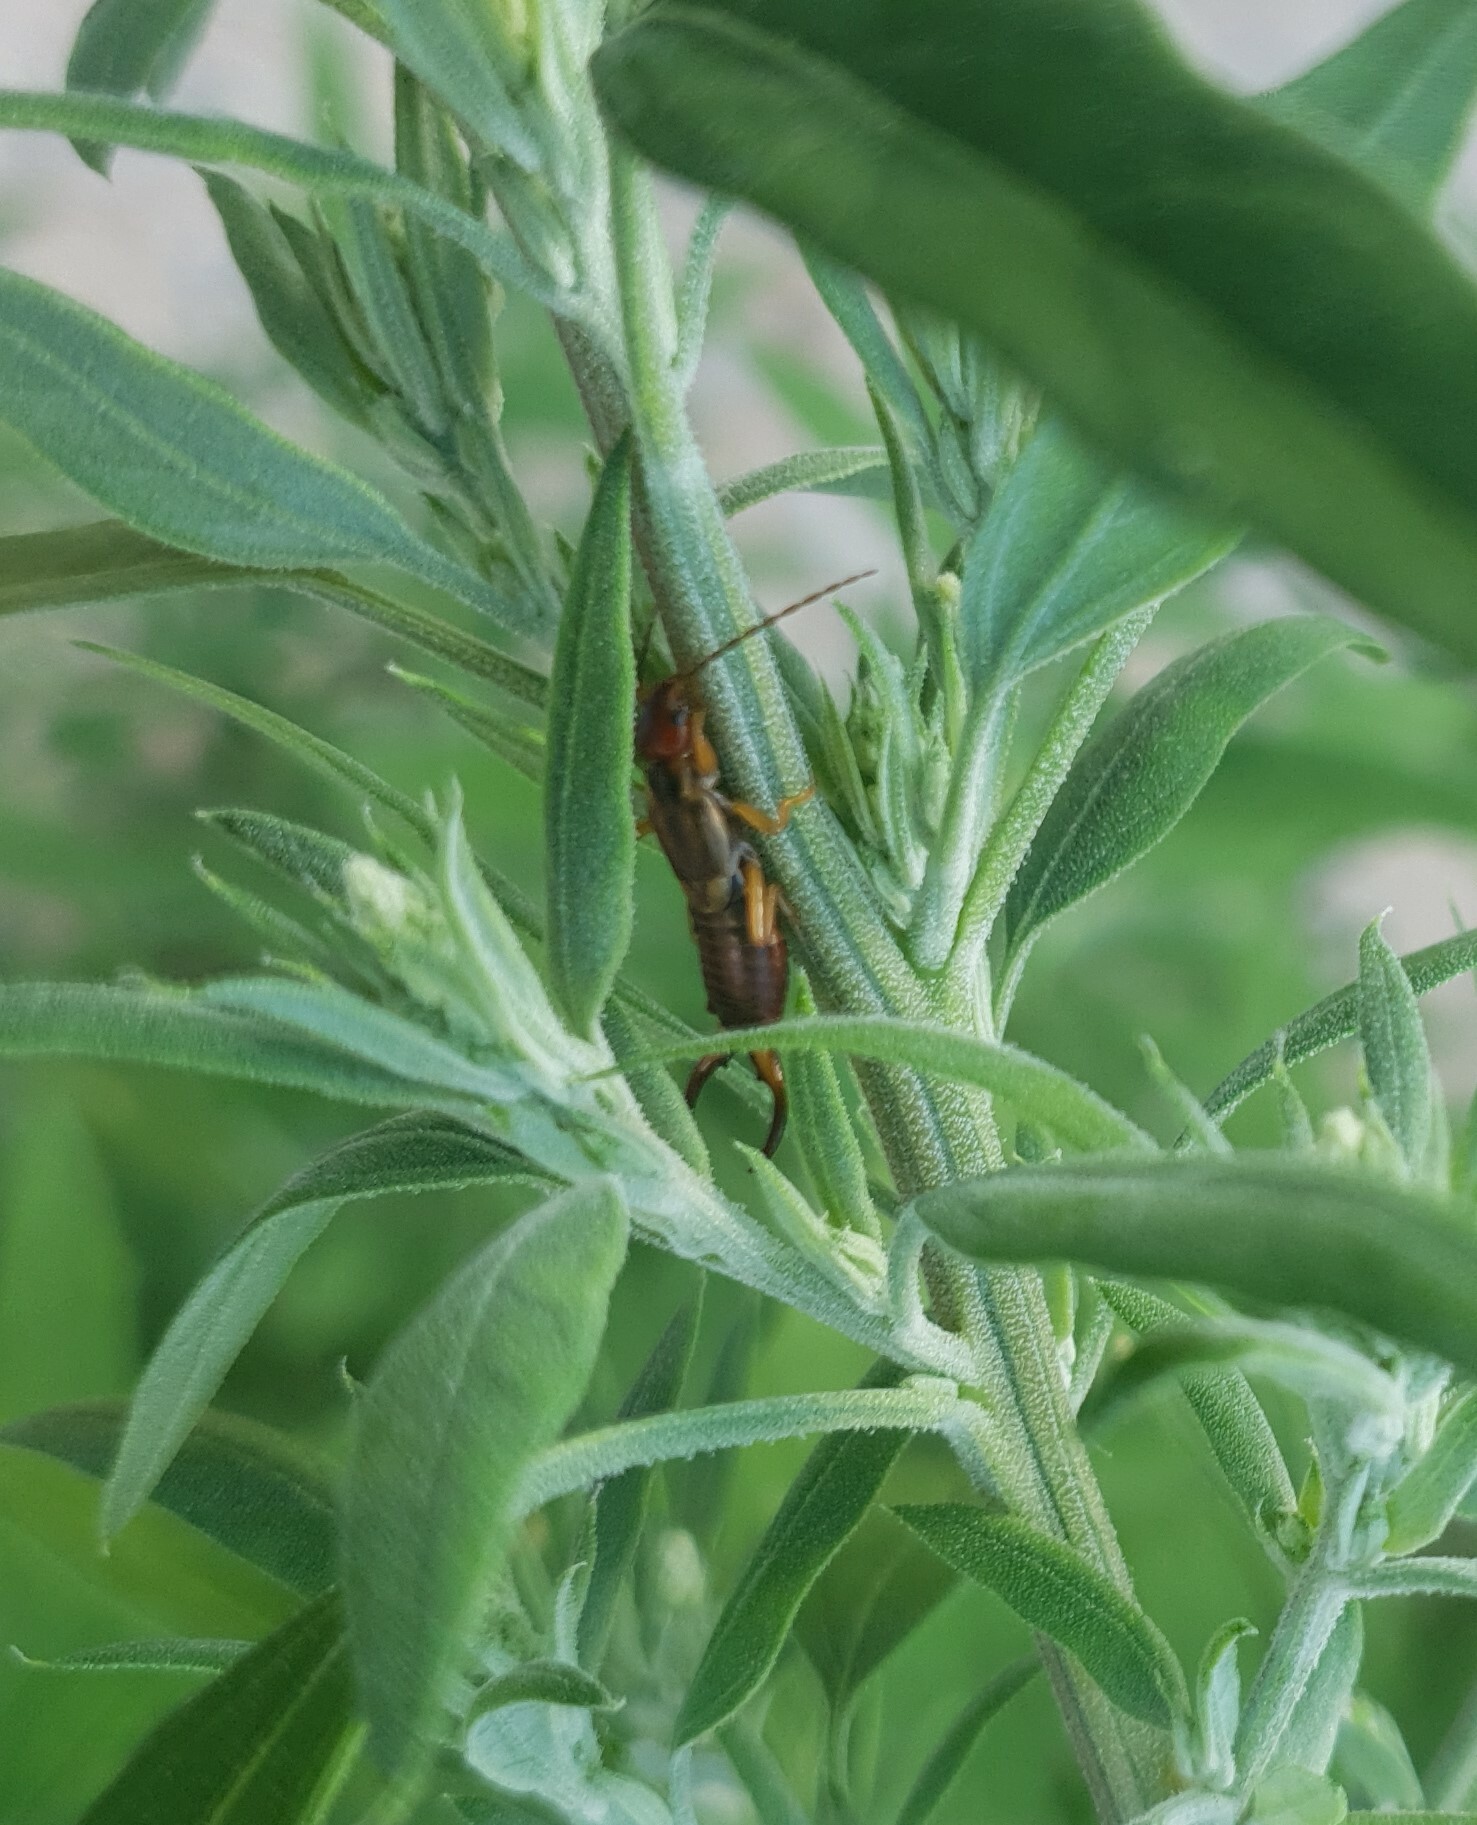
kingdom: Animalia
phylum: Arthropoda
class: Insecta
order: Dermaptera
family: Forficulidae
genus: Forficula
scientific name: Forficula
